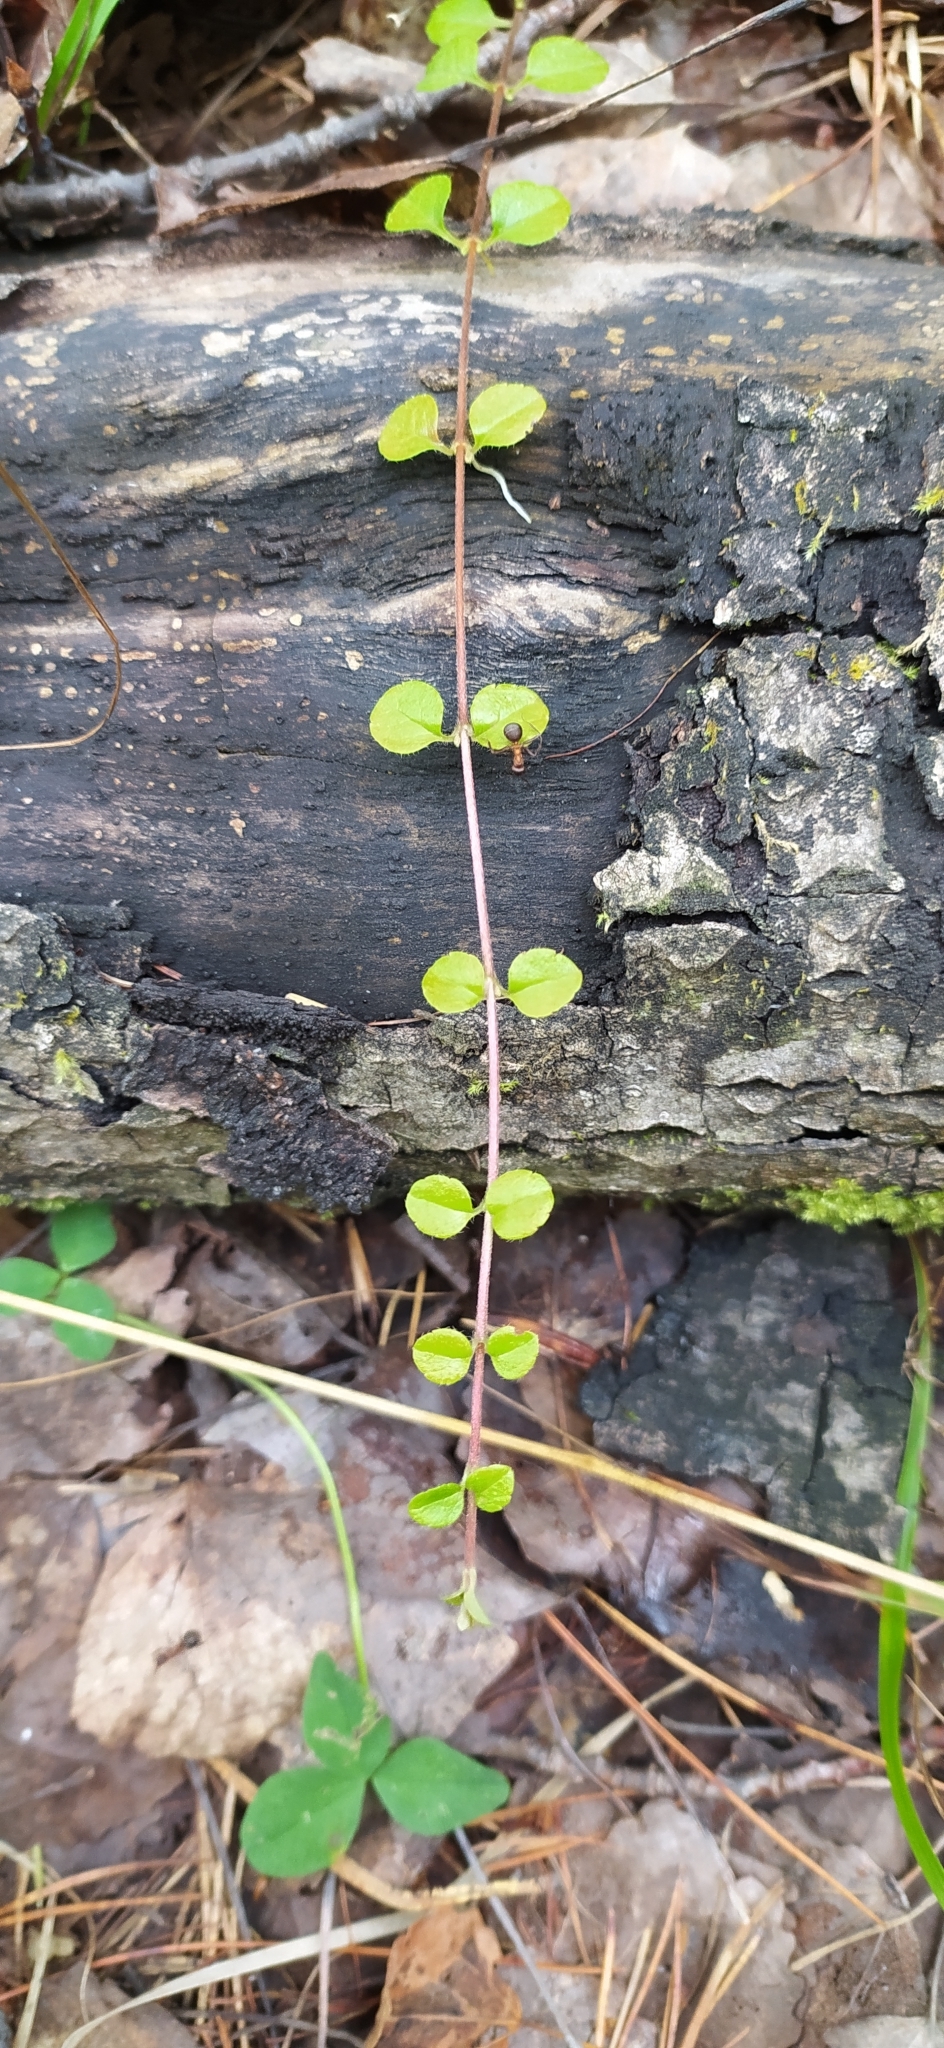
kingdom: Plantae
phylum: Tracheophyta
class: Magnoliopsida
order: Dipsacales
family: Caprifoliaceae
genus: Linnaea
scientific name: Linnaea borealis
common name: Twinflower
